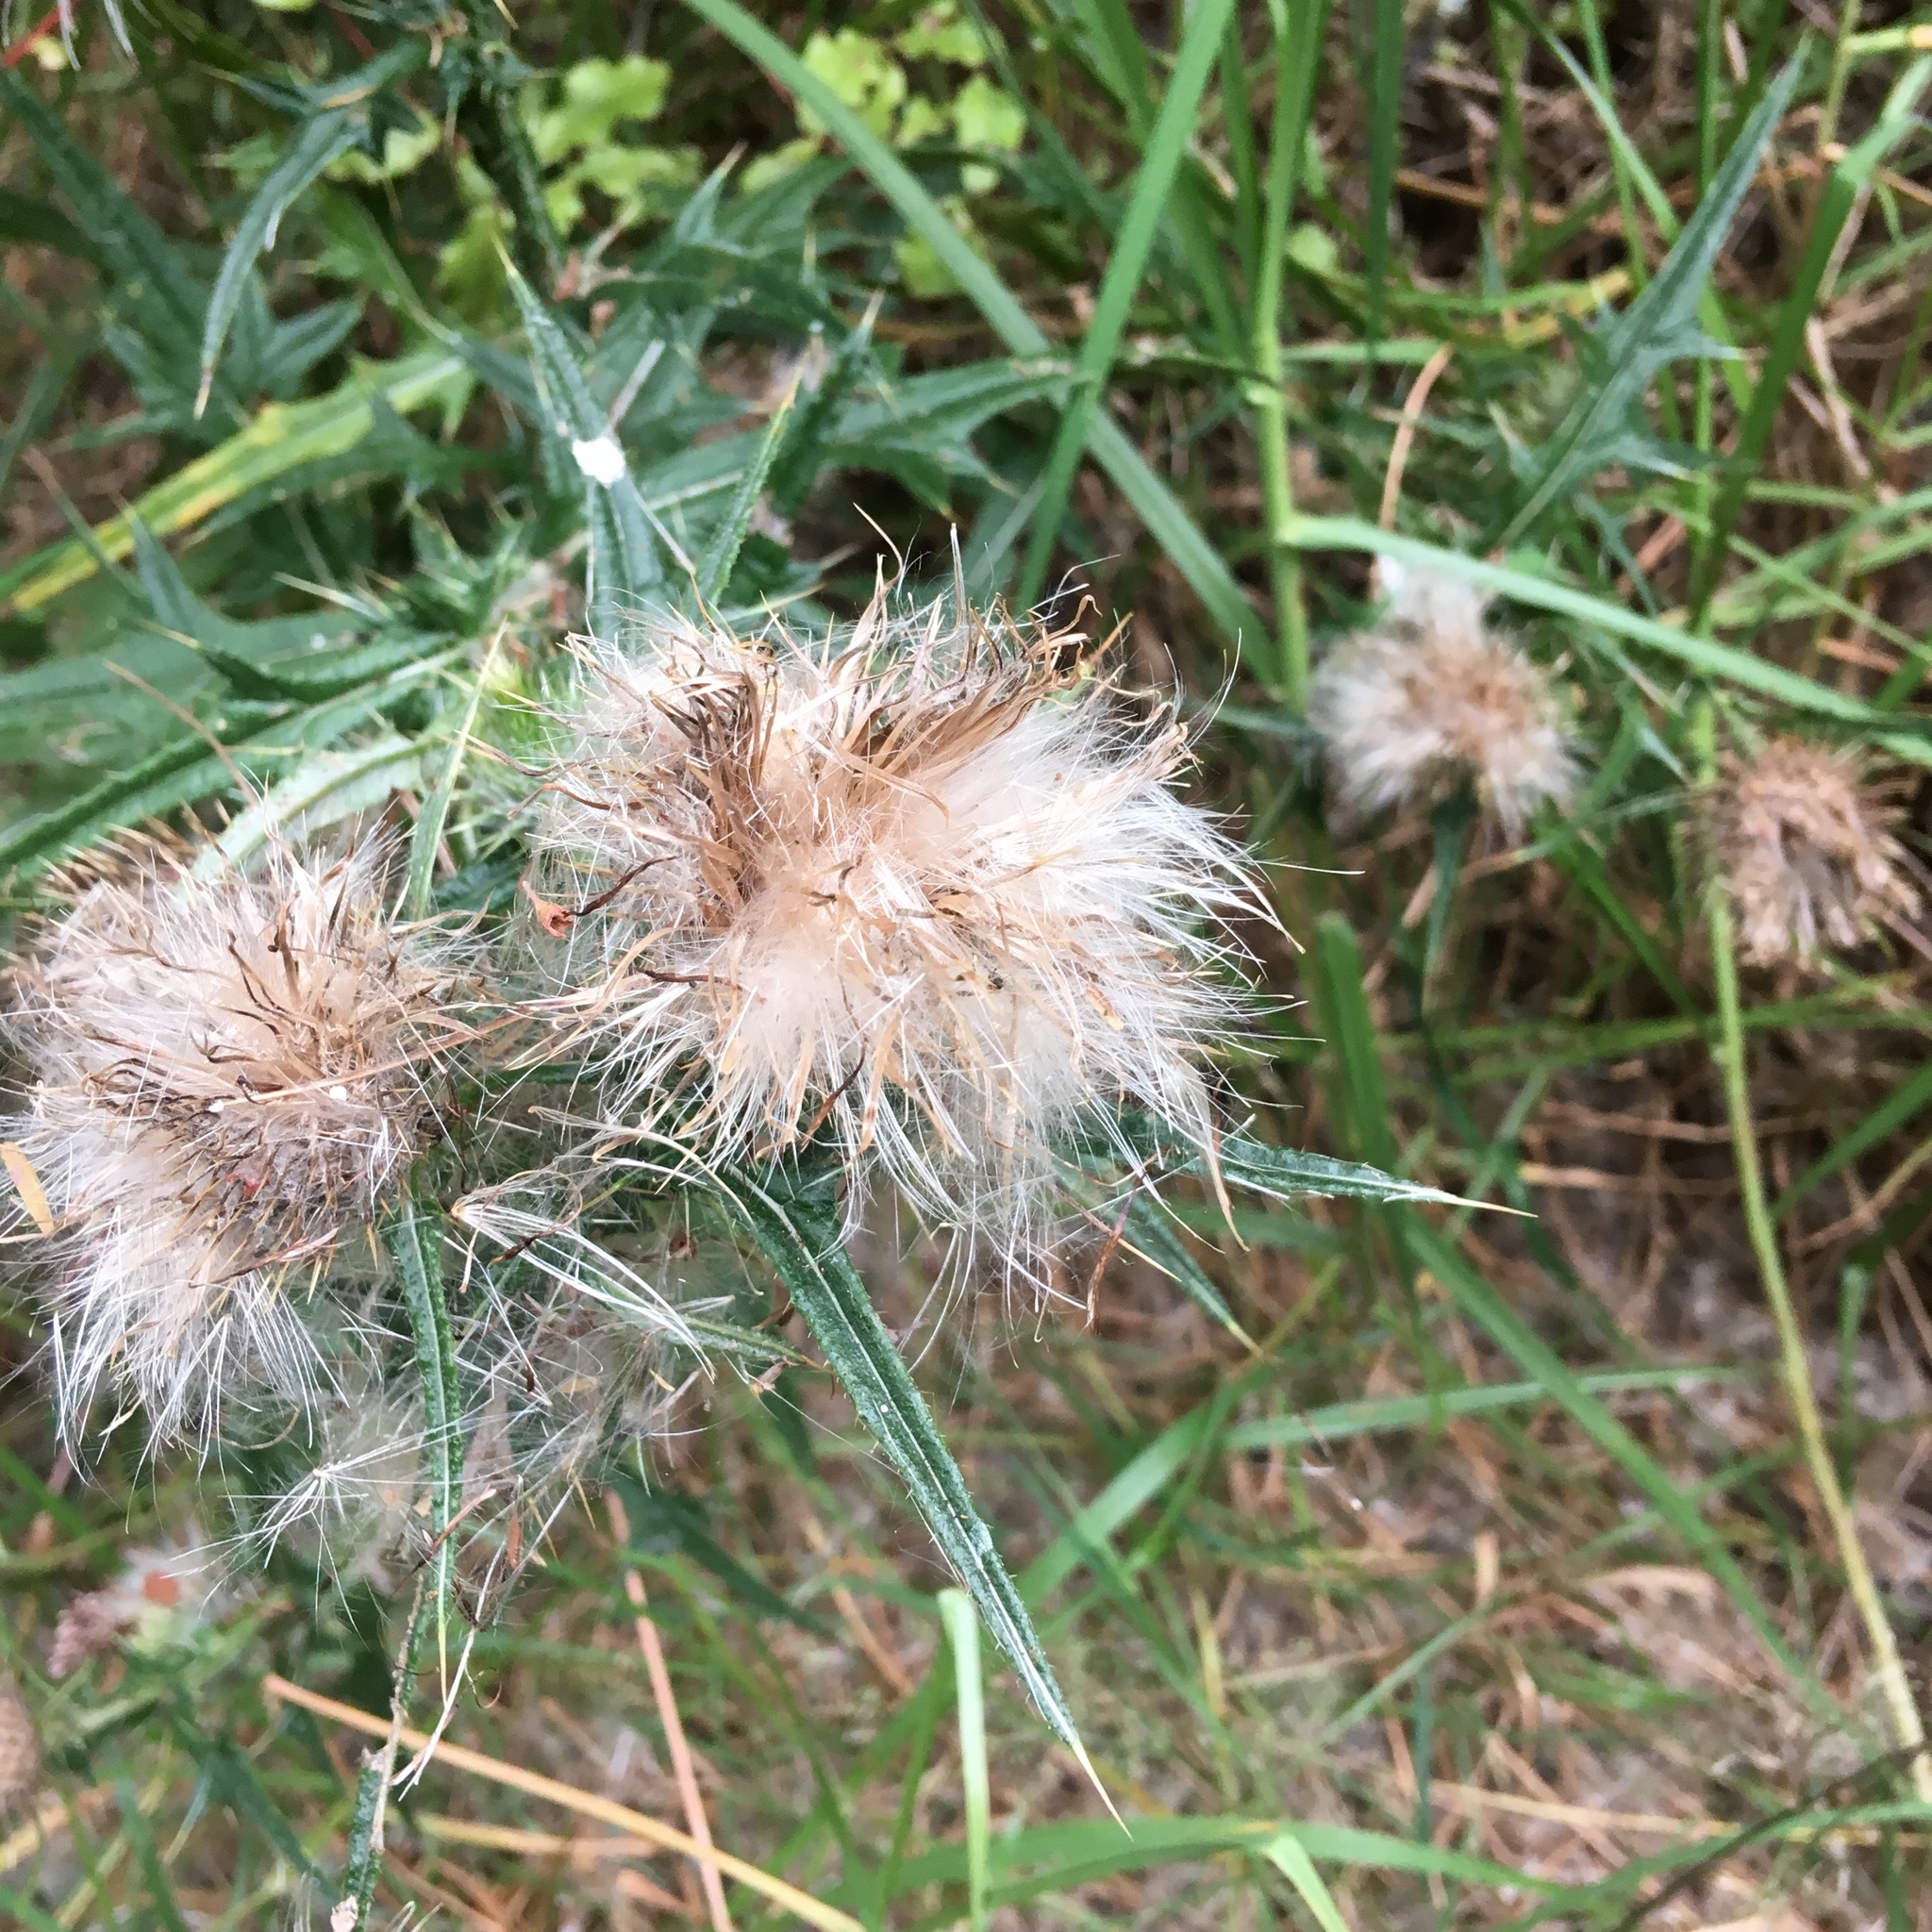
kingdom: Plantae
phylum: Tracheophyta
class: Magnoliopsida
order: Asterales
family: Asteraceae
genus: Cirsium
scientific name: Cirsium vulgare
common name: Bull thistle
